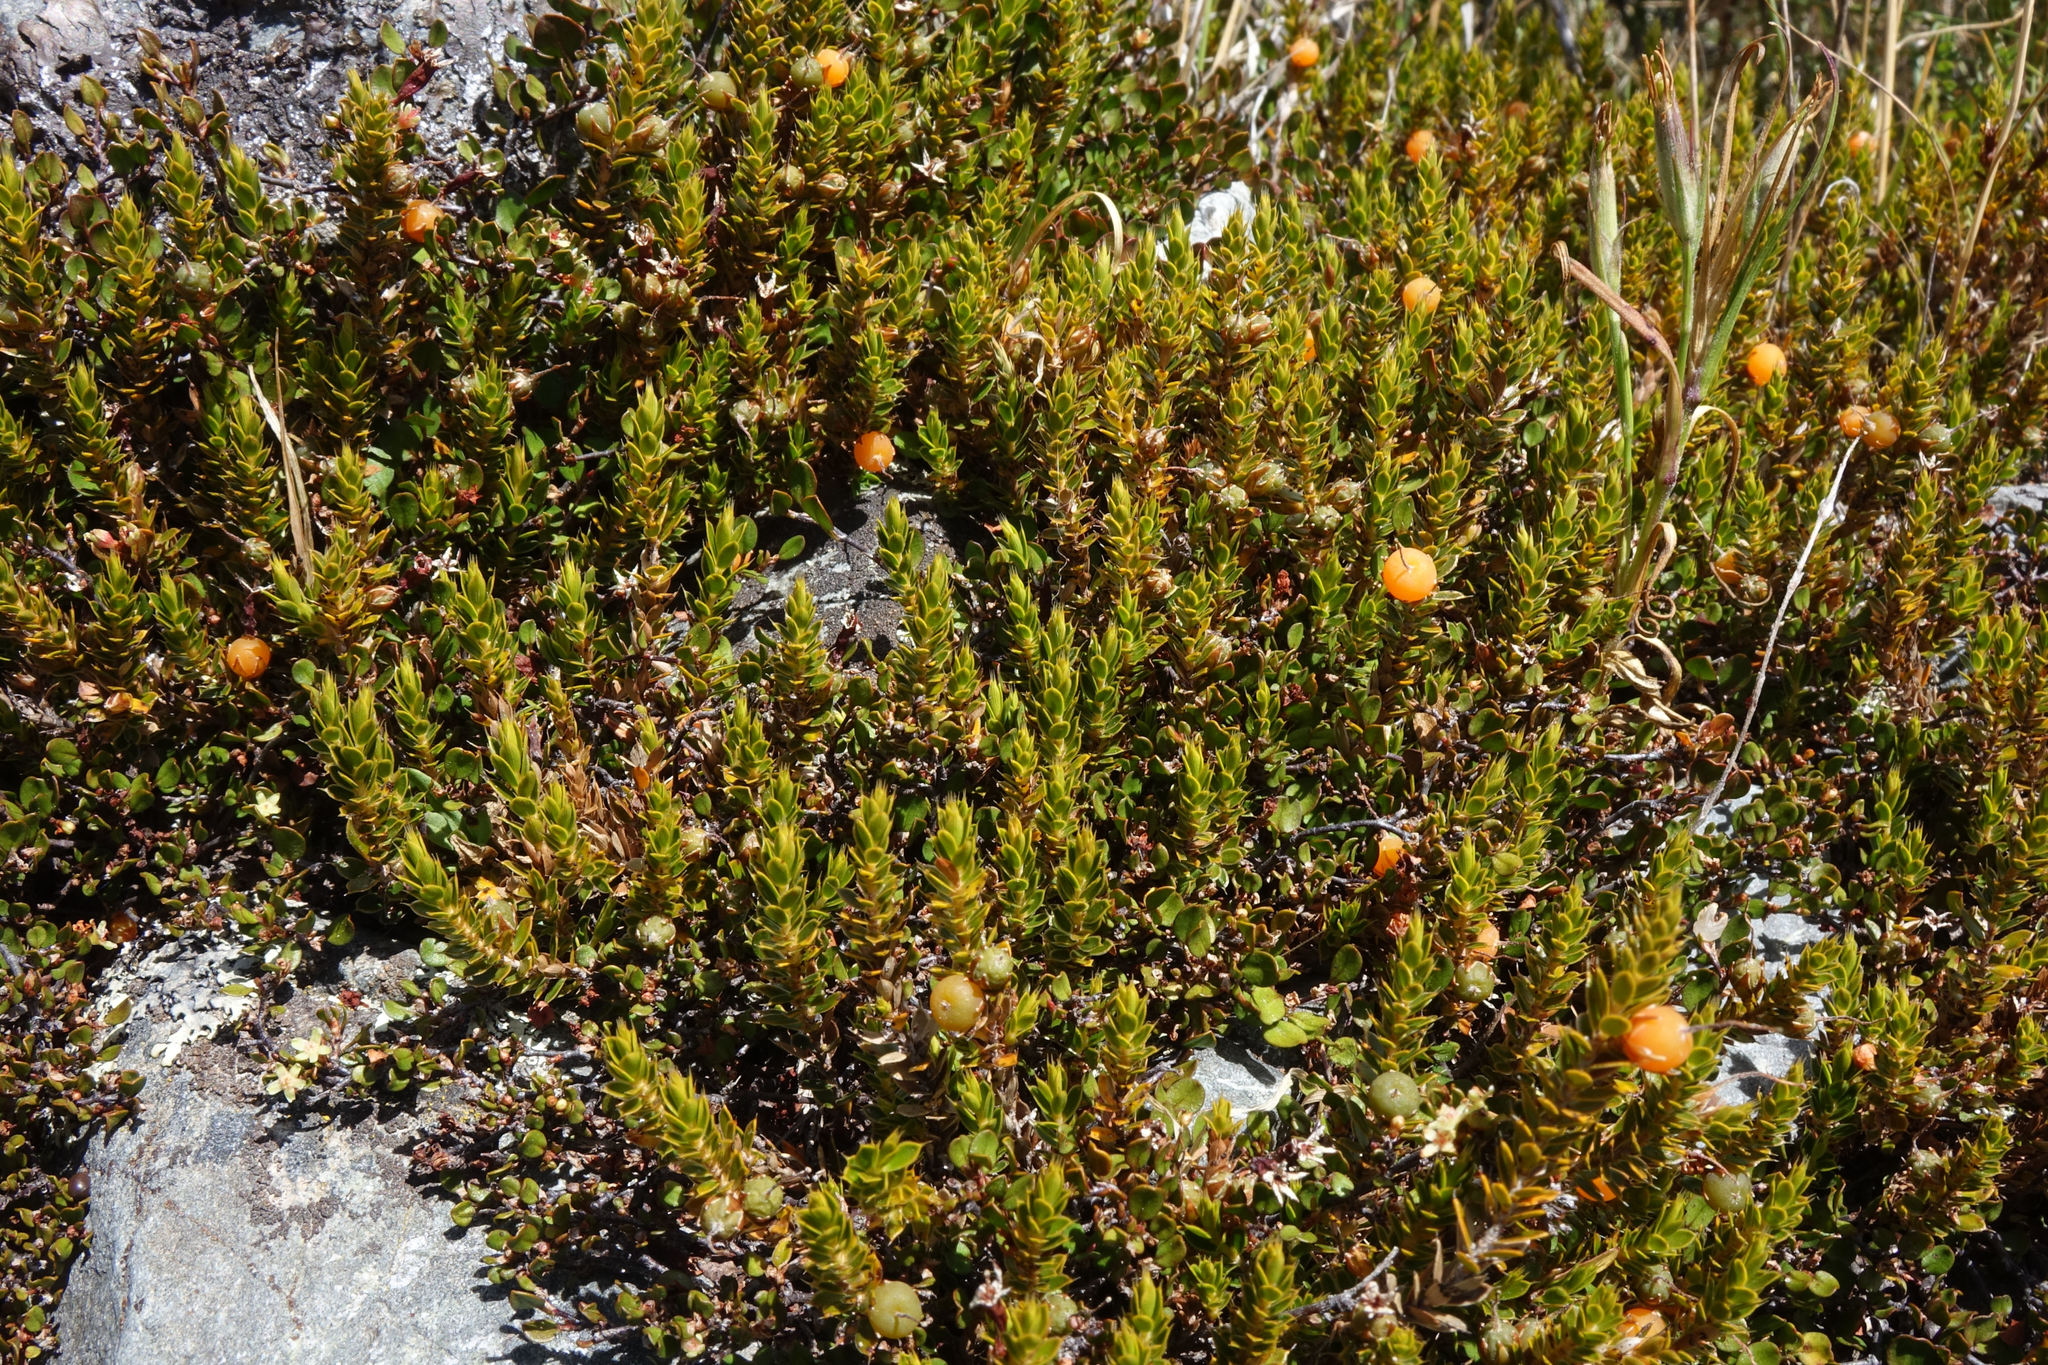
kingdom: Plantae
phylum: Tracheophyta
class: Magnoliopsida
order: Ericales
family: Ericaceae
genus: Styphelia
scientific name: Styphelia nesophila
